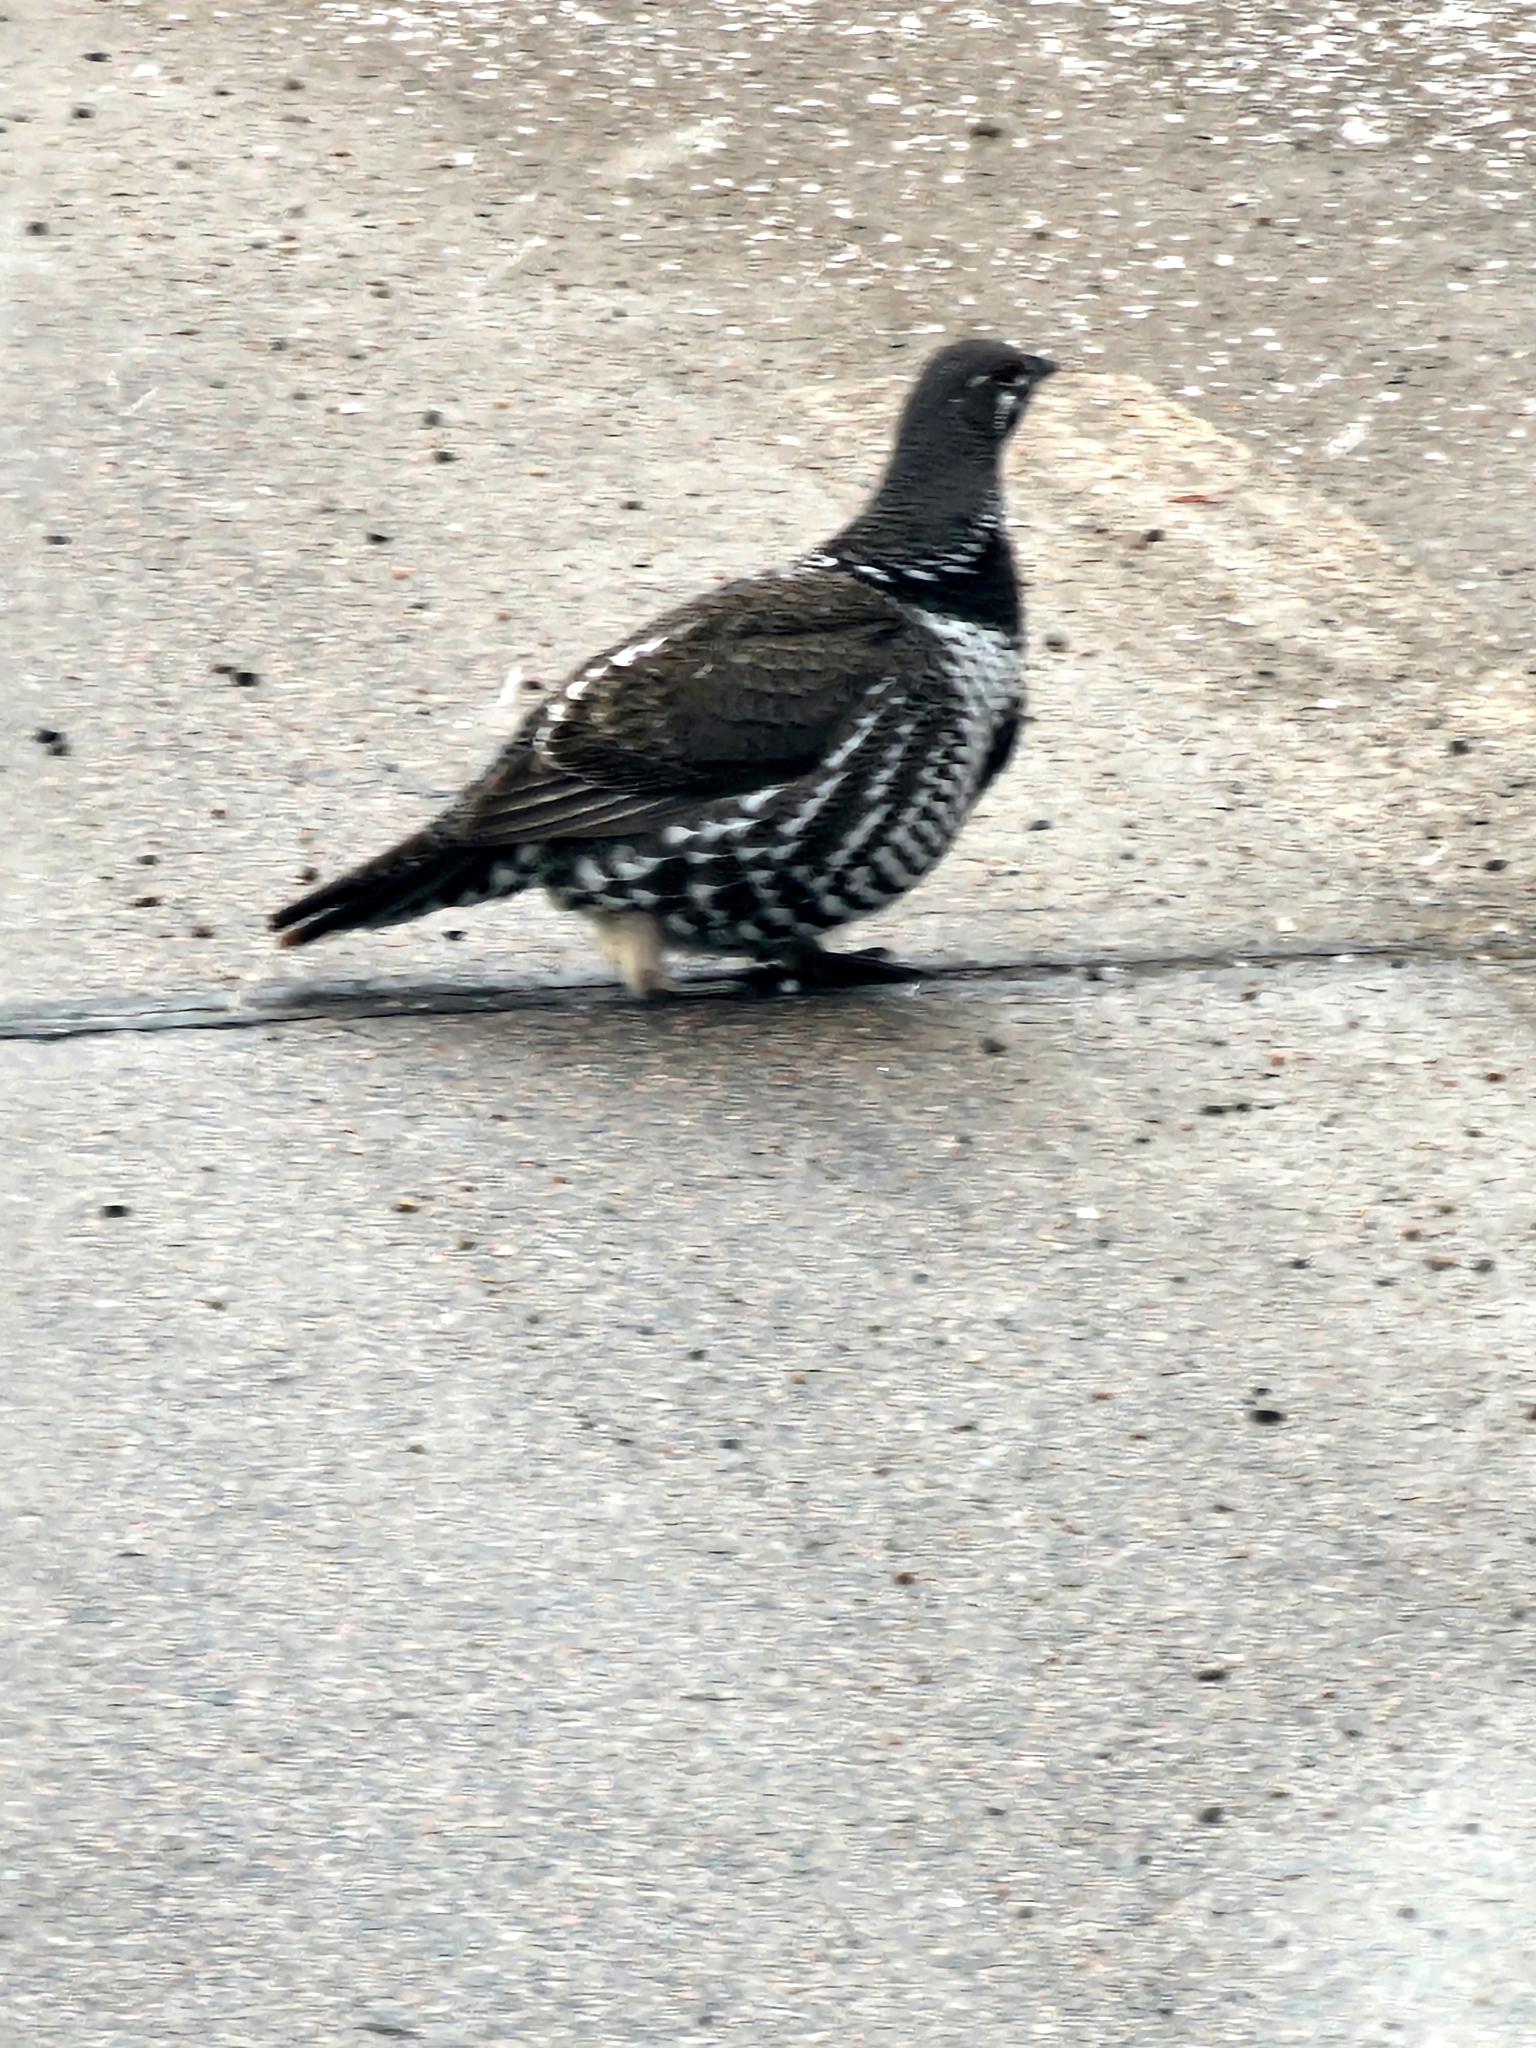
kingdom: Animalia
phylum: Chordata
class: Aves
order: Galliformes
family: Phasianidae
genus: Canachites
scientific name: Canachites canadensis
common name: Spruce grouse
